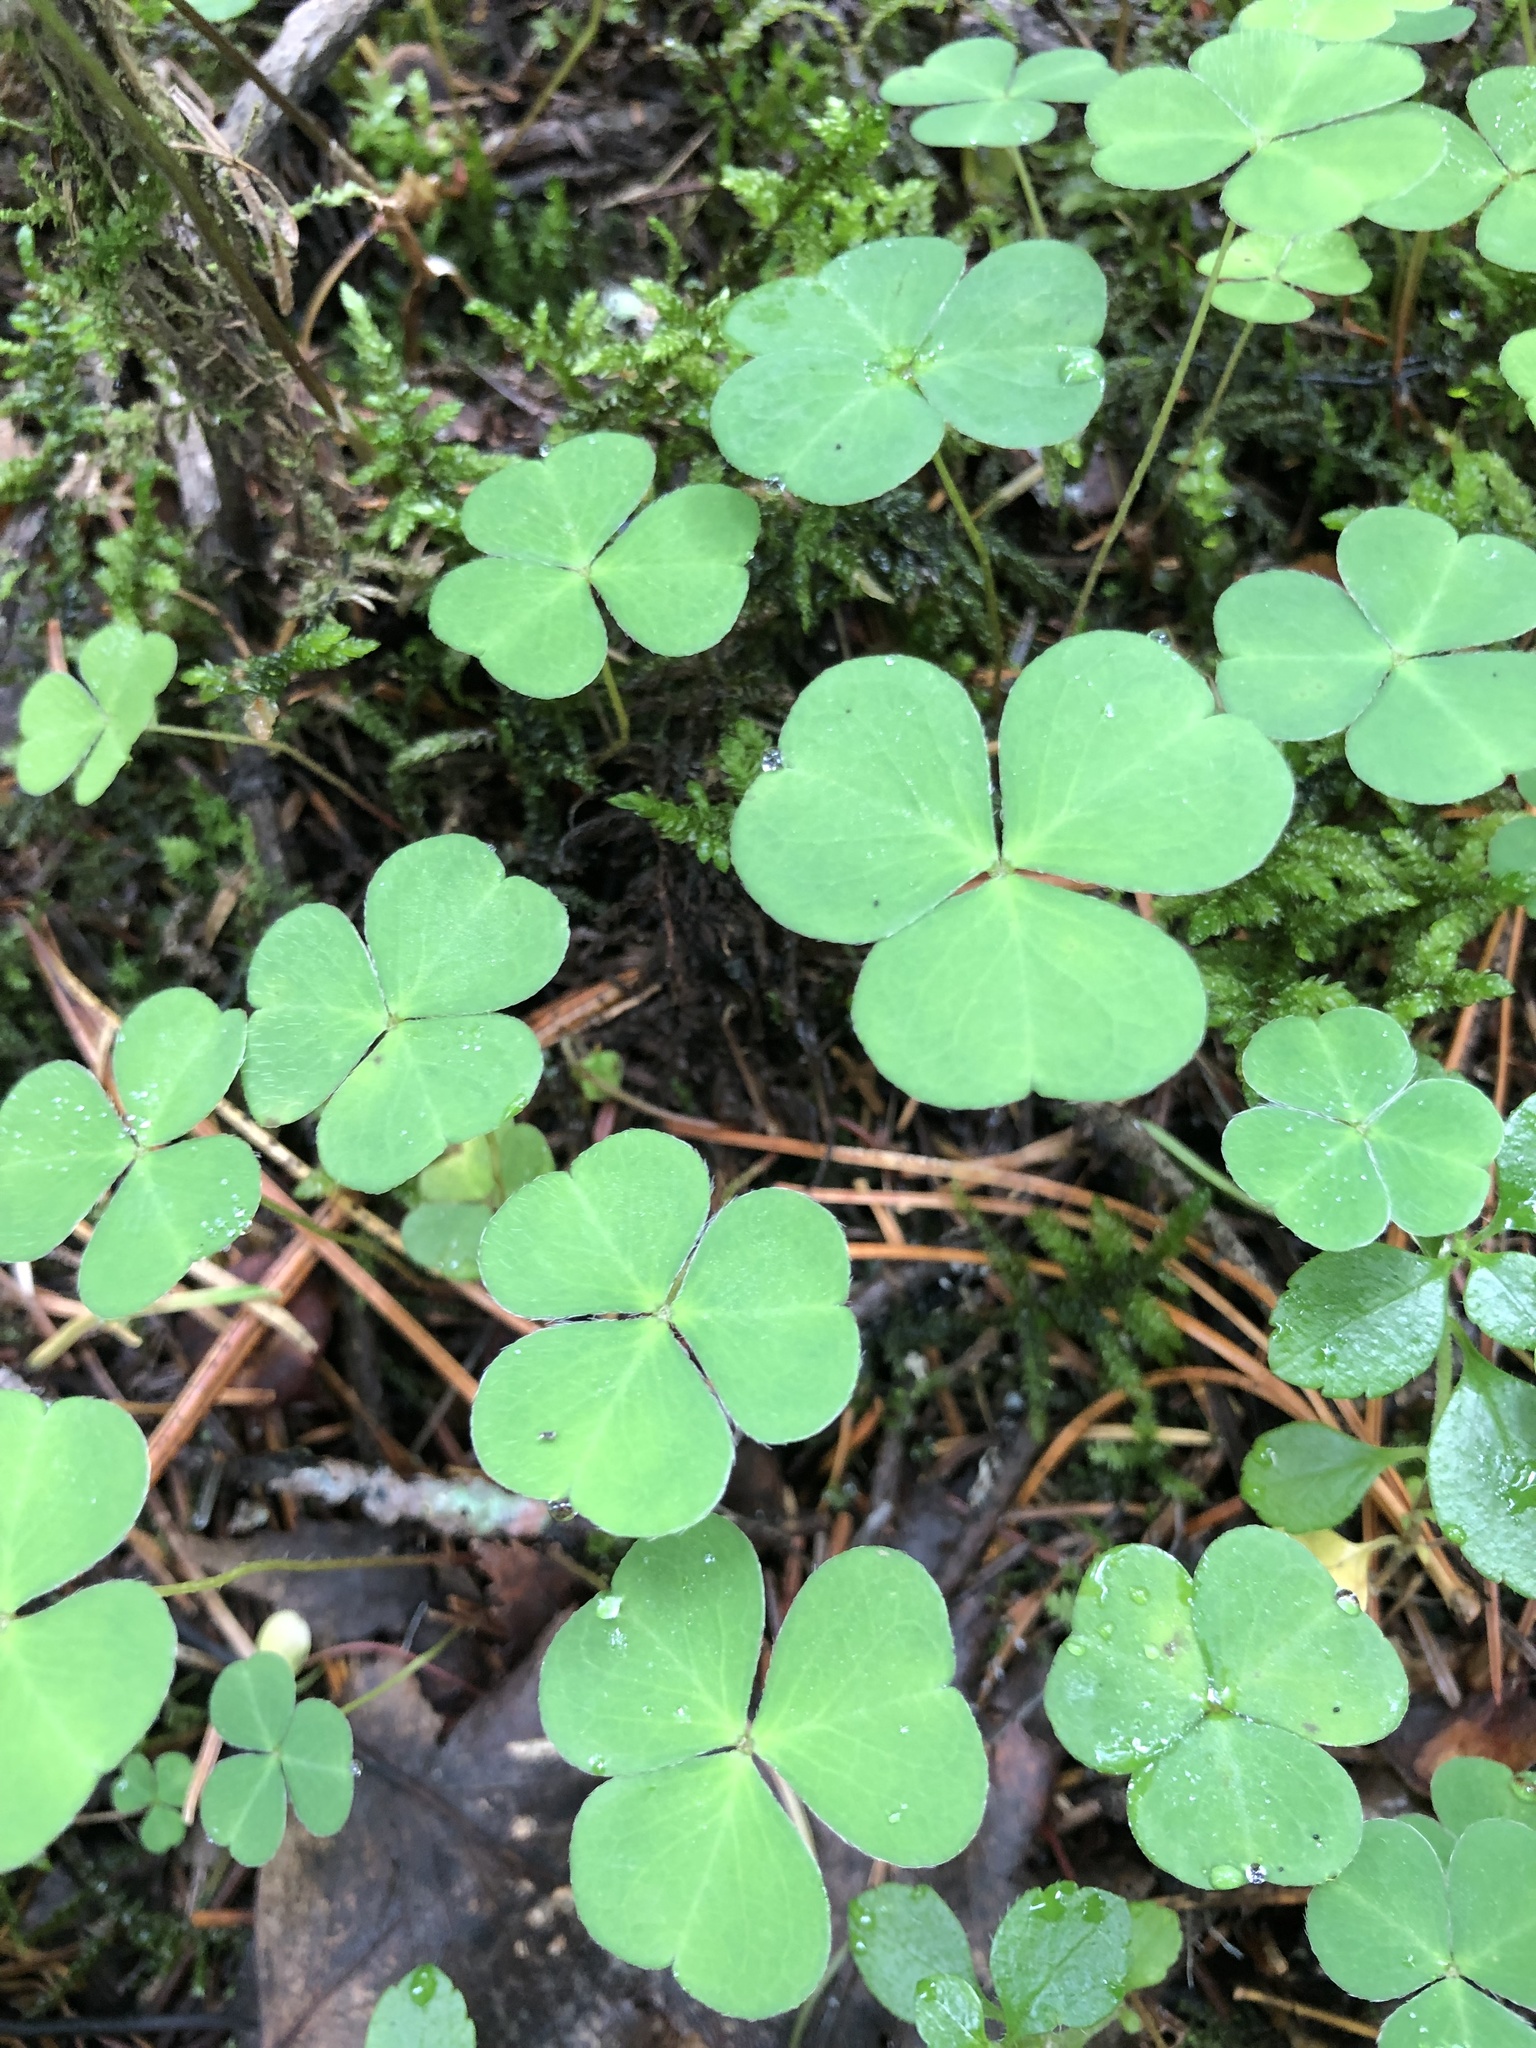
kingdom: Plantae
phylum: Tracheophyta
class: Magnoliopsida
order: Oxalidales
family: Oxalidaceae
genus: Oxalis
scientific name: Oxalis acetosella
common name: Wood-sorrel
